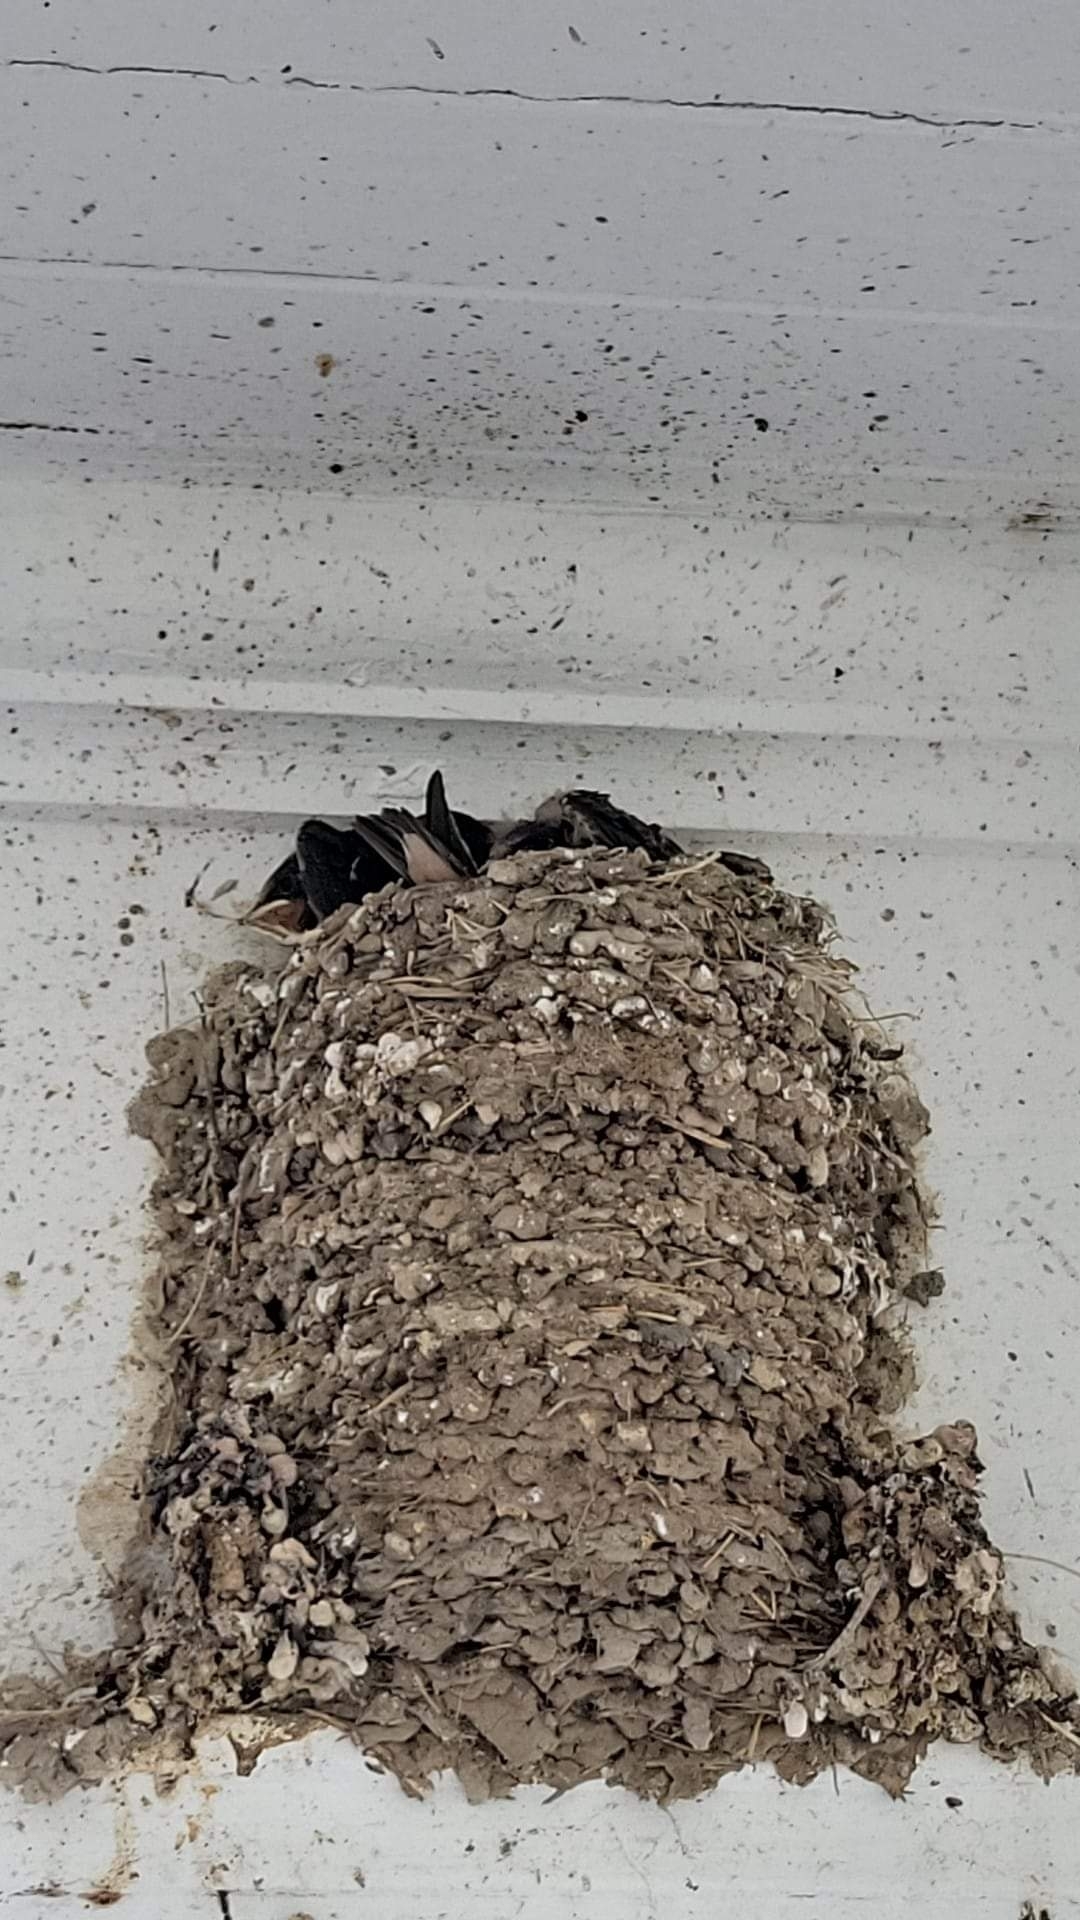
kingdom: Animalia
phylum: Chordata
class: Aves
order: Passeriformes
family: Hirundinidae
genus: Hirundo
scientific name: Hirundo rustica
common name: Barn swallow
